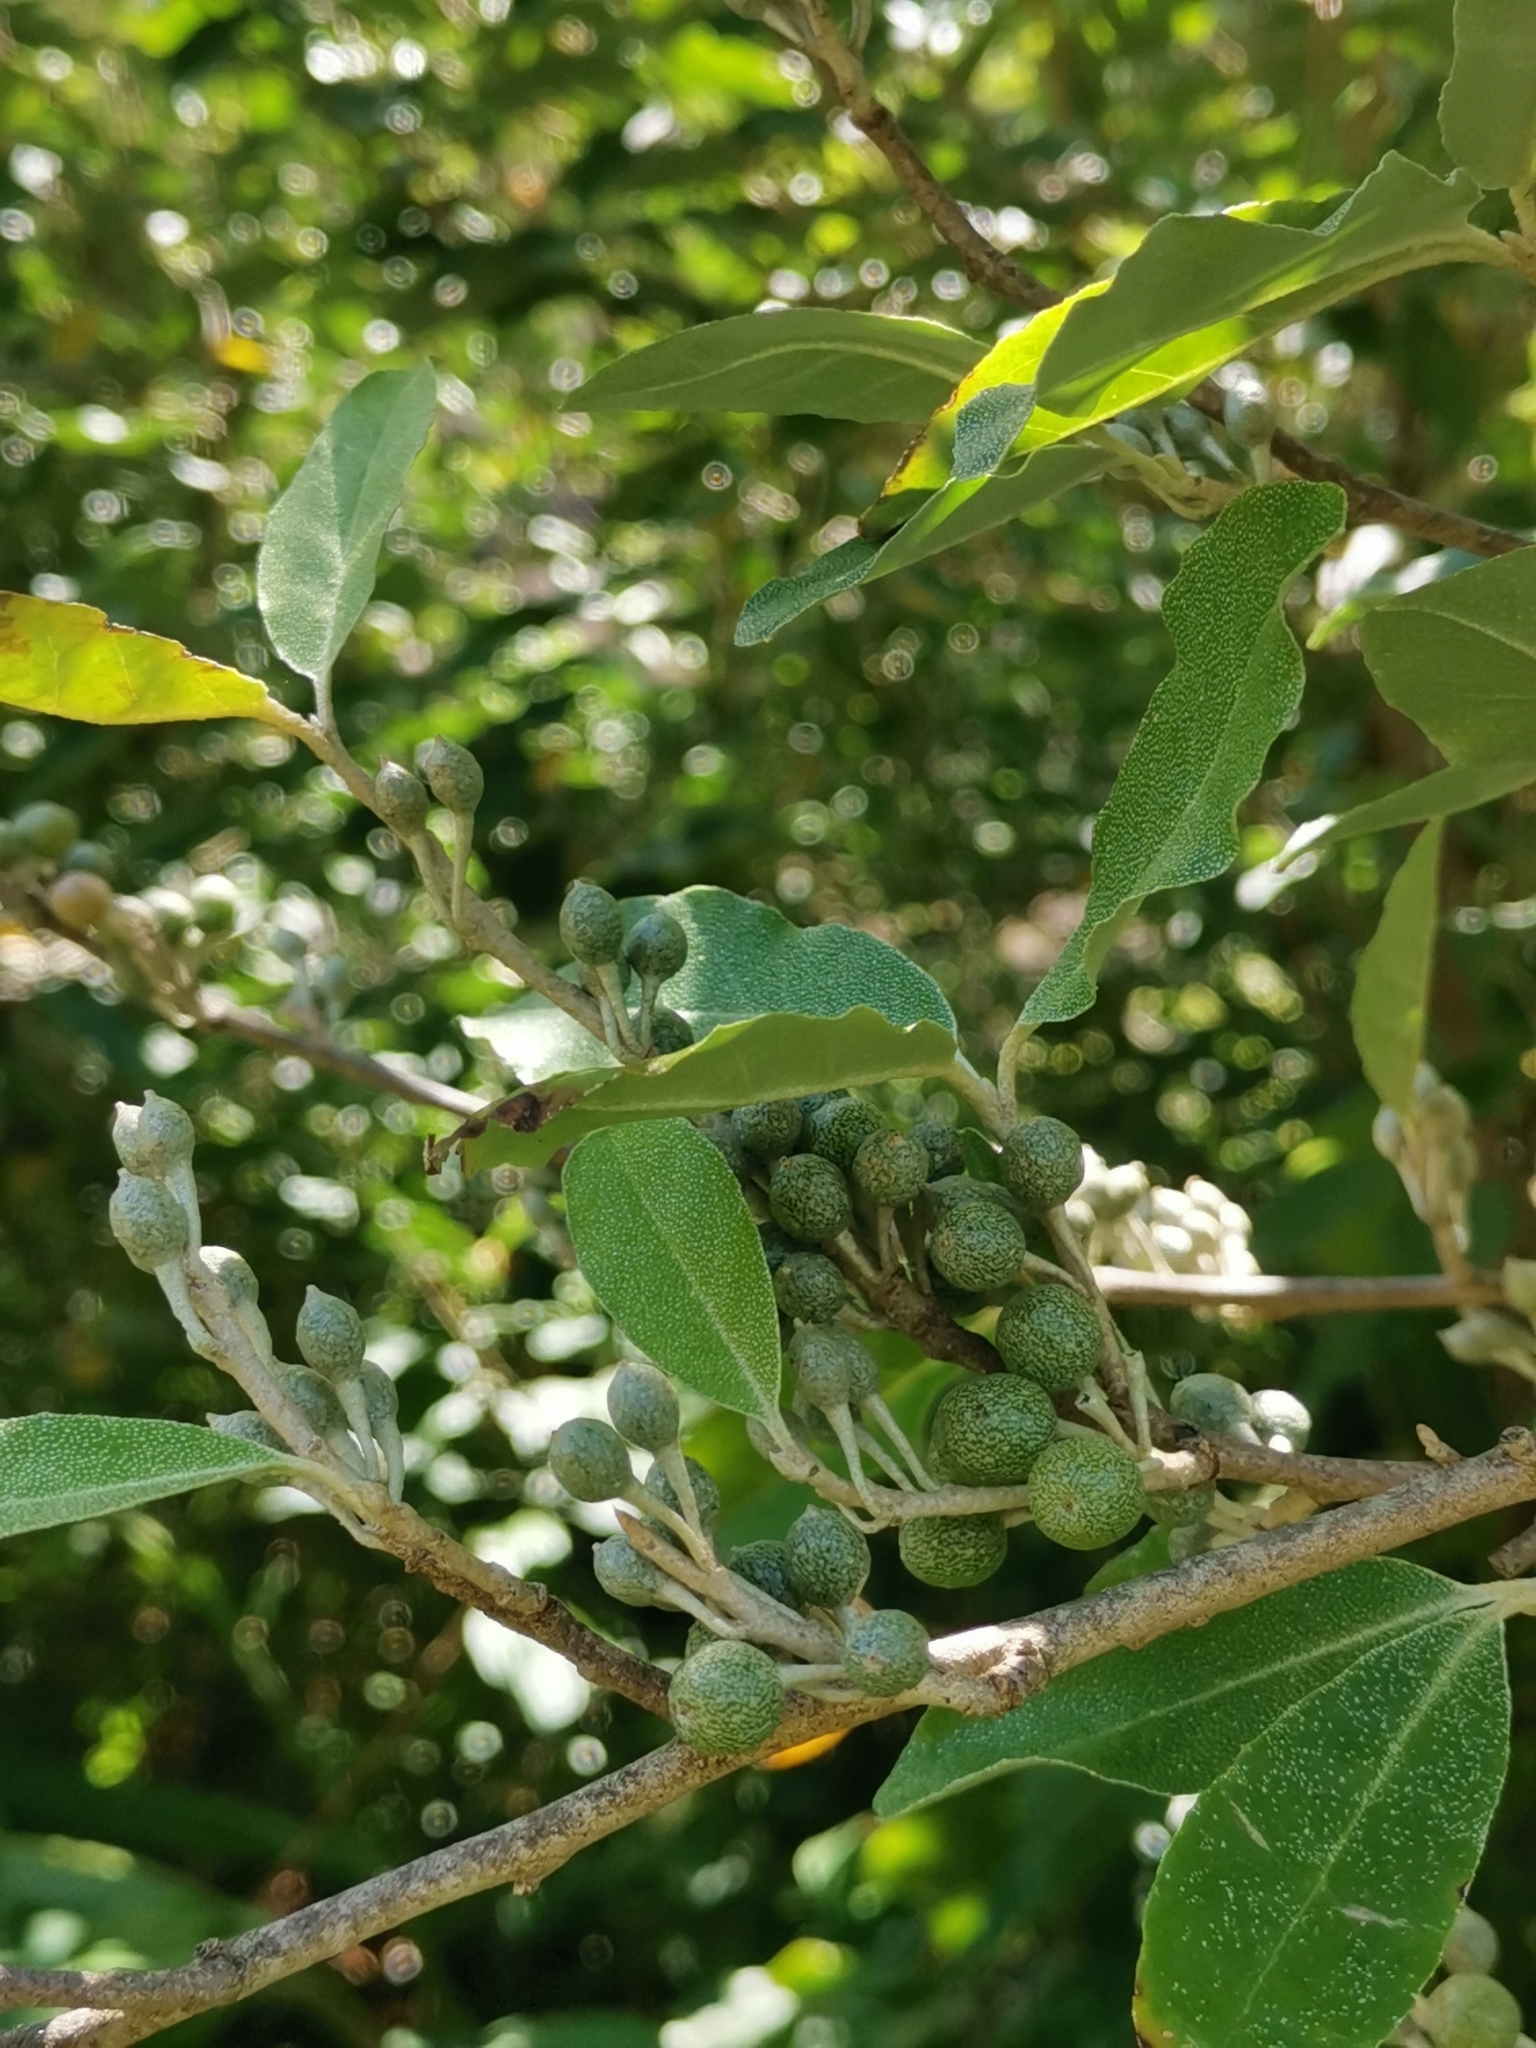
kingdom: Plantae
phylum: Tracheophyta
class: Magnoliopsida
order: Rosales
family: Elaeagnaceae
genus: Elaeagnus
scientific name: Elaeagnus umbellata
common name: Autumn olive
